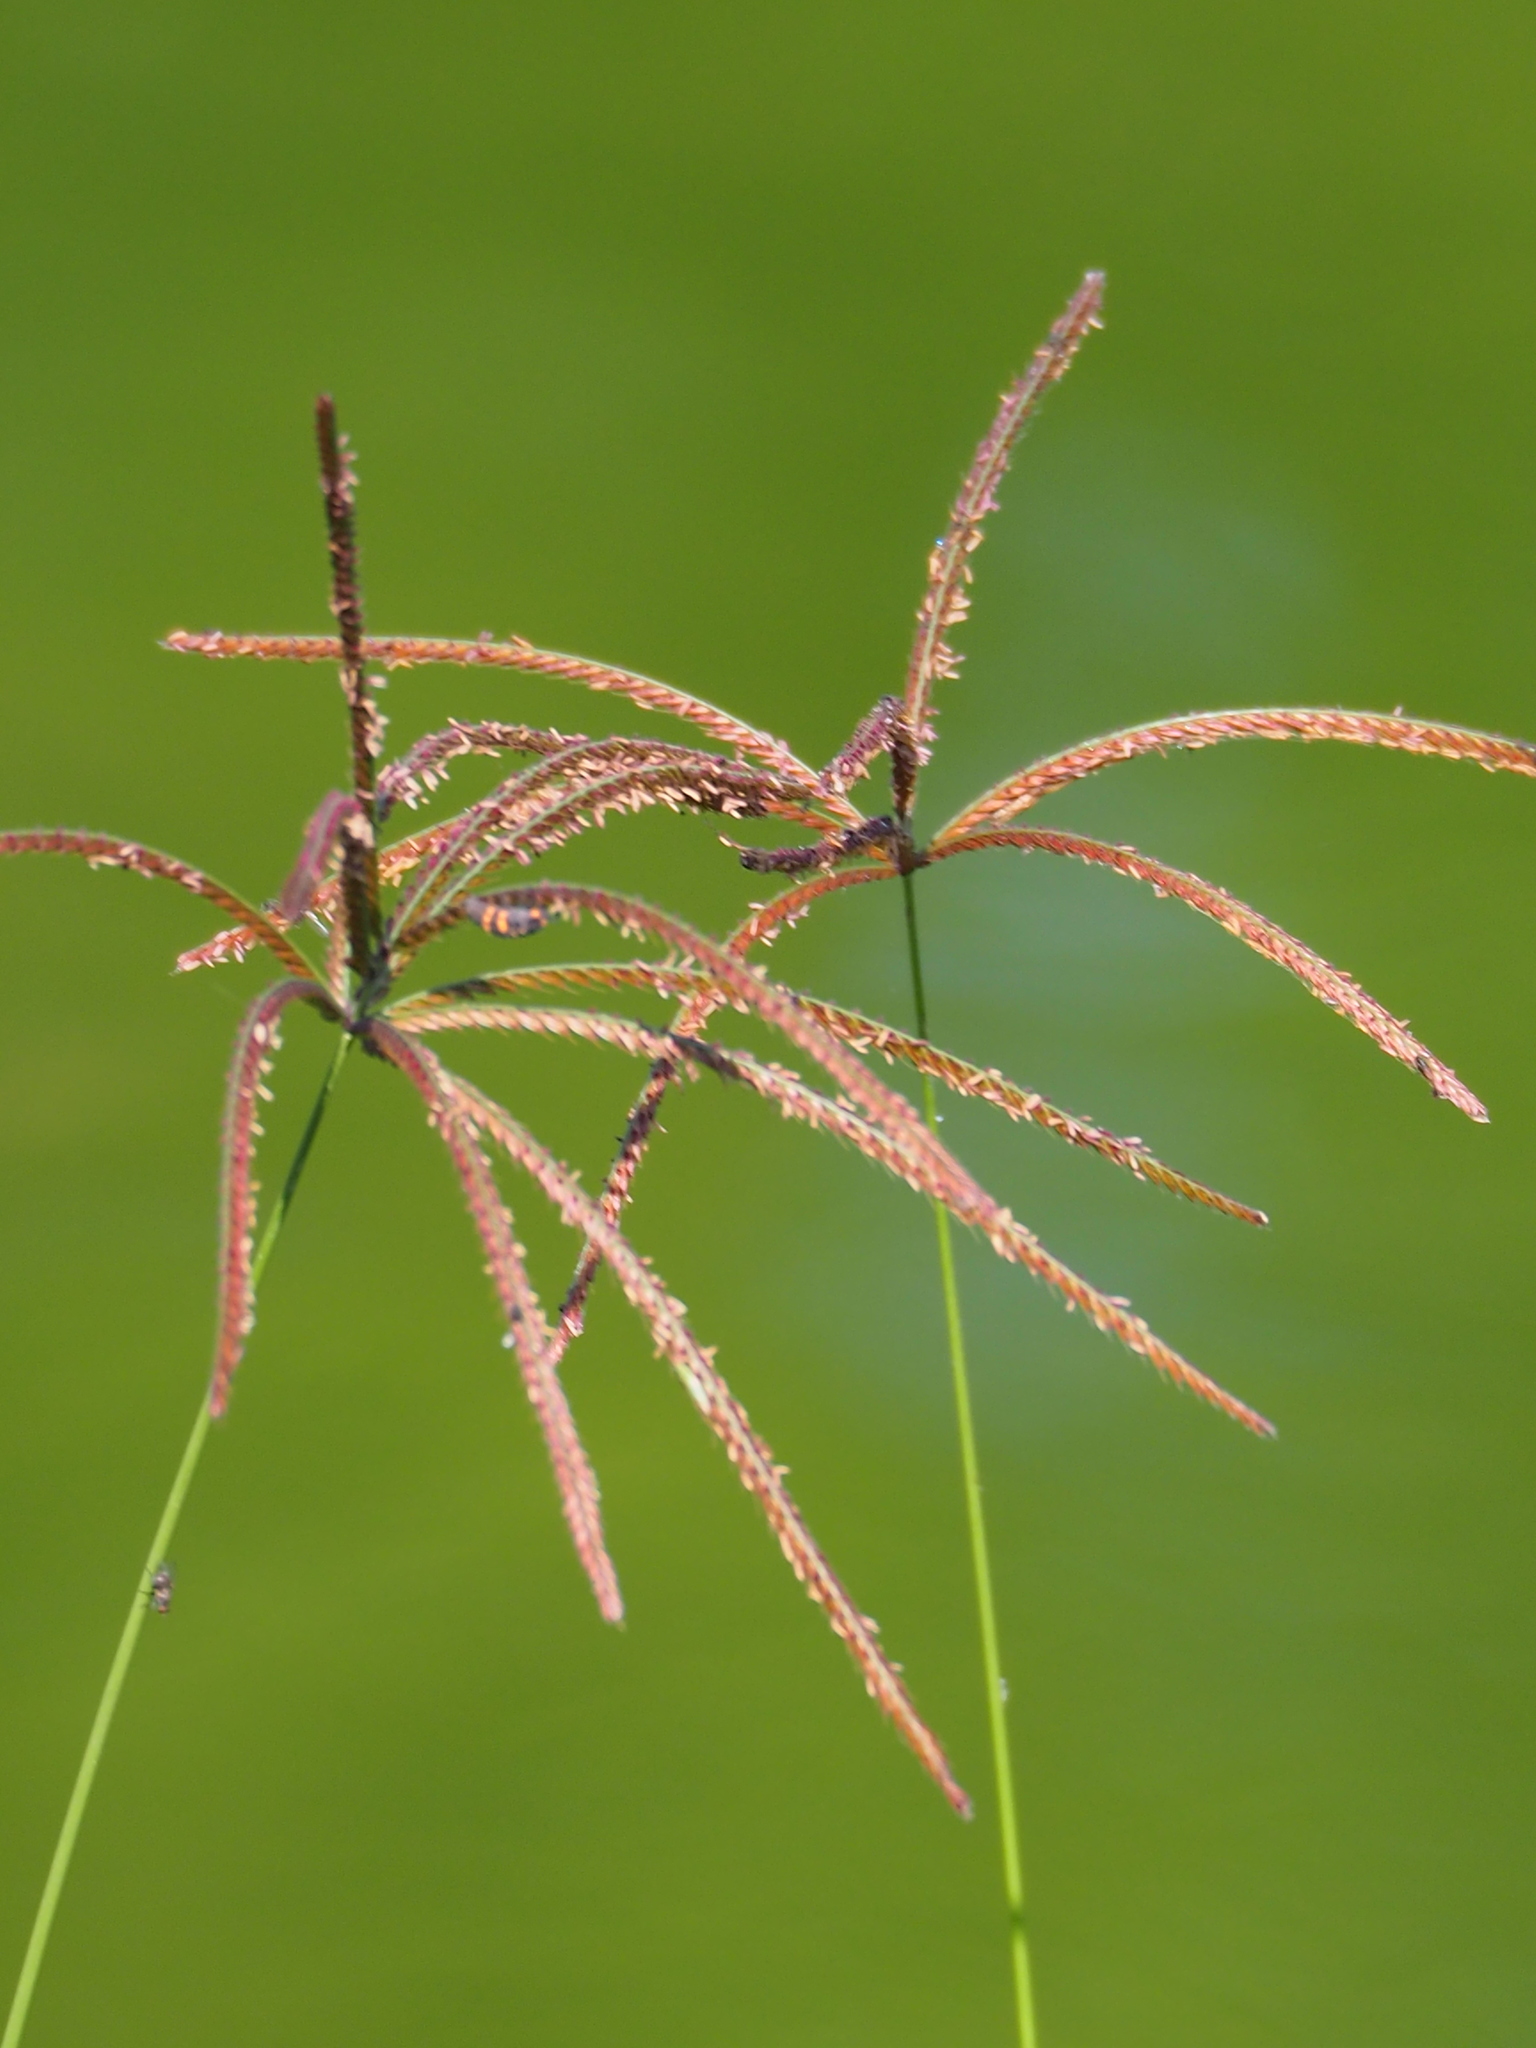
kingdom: Plantae
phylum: Tracheophyta
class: Liliopsida
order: Poales
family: Poaceae
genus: Chloris
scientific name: Chloris gayana
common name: Rhodes grass
